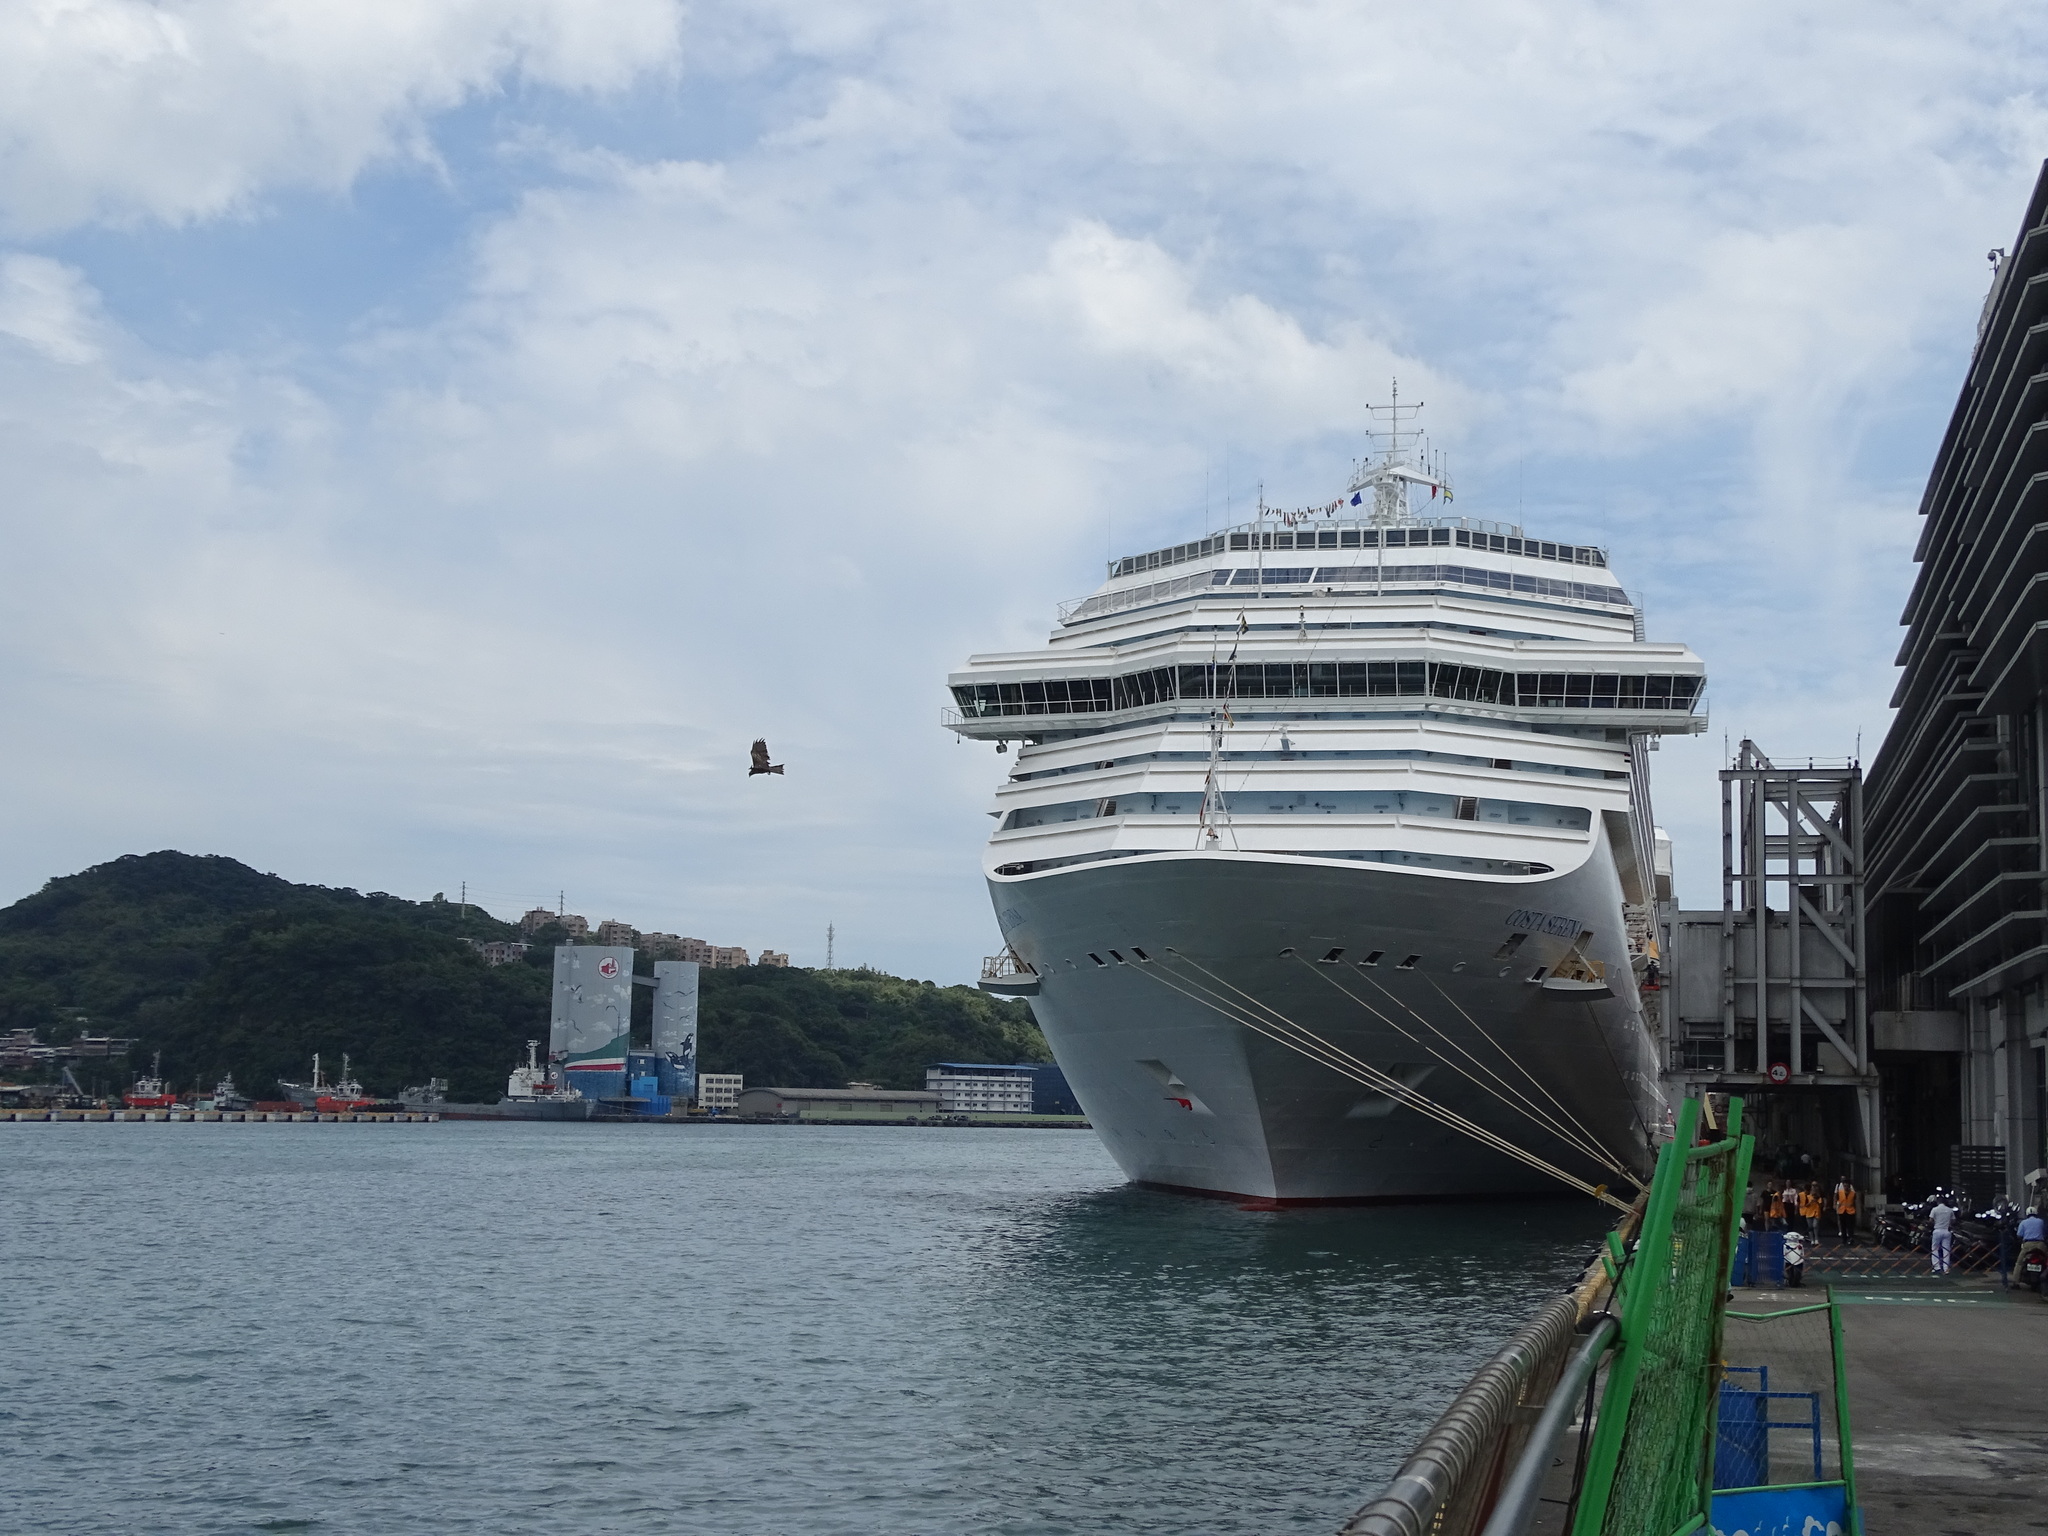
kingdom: Animalia
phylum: Chordata
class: Aves
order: Accipitriformes
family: Accipitridae
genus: Milvus
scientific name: Milvus migrans
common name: Black kite
